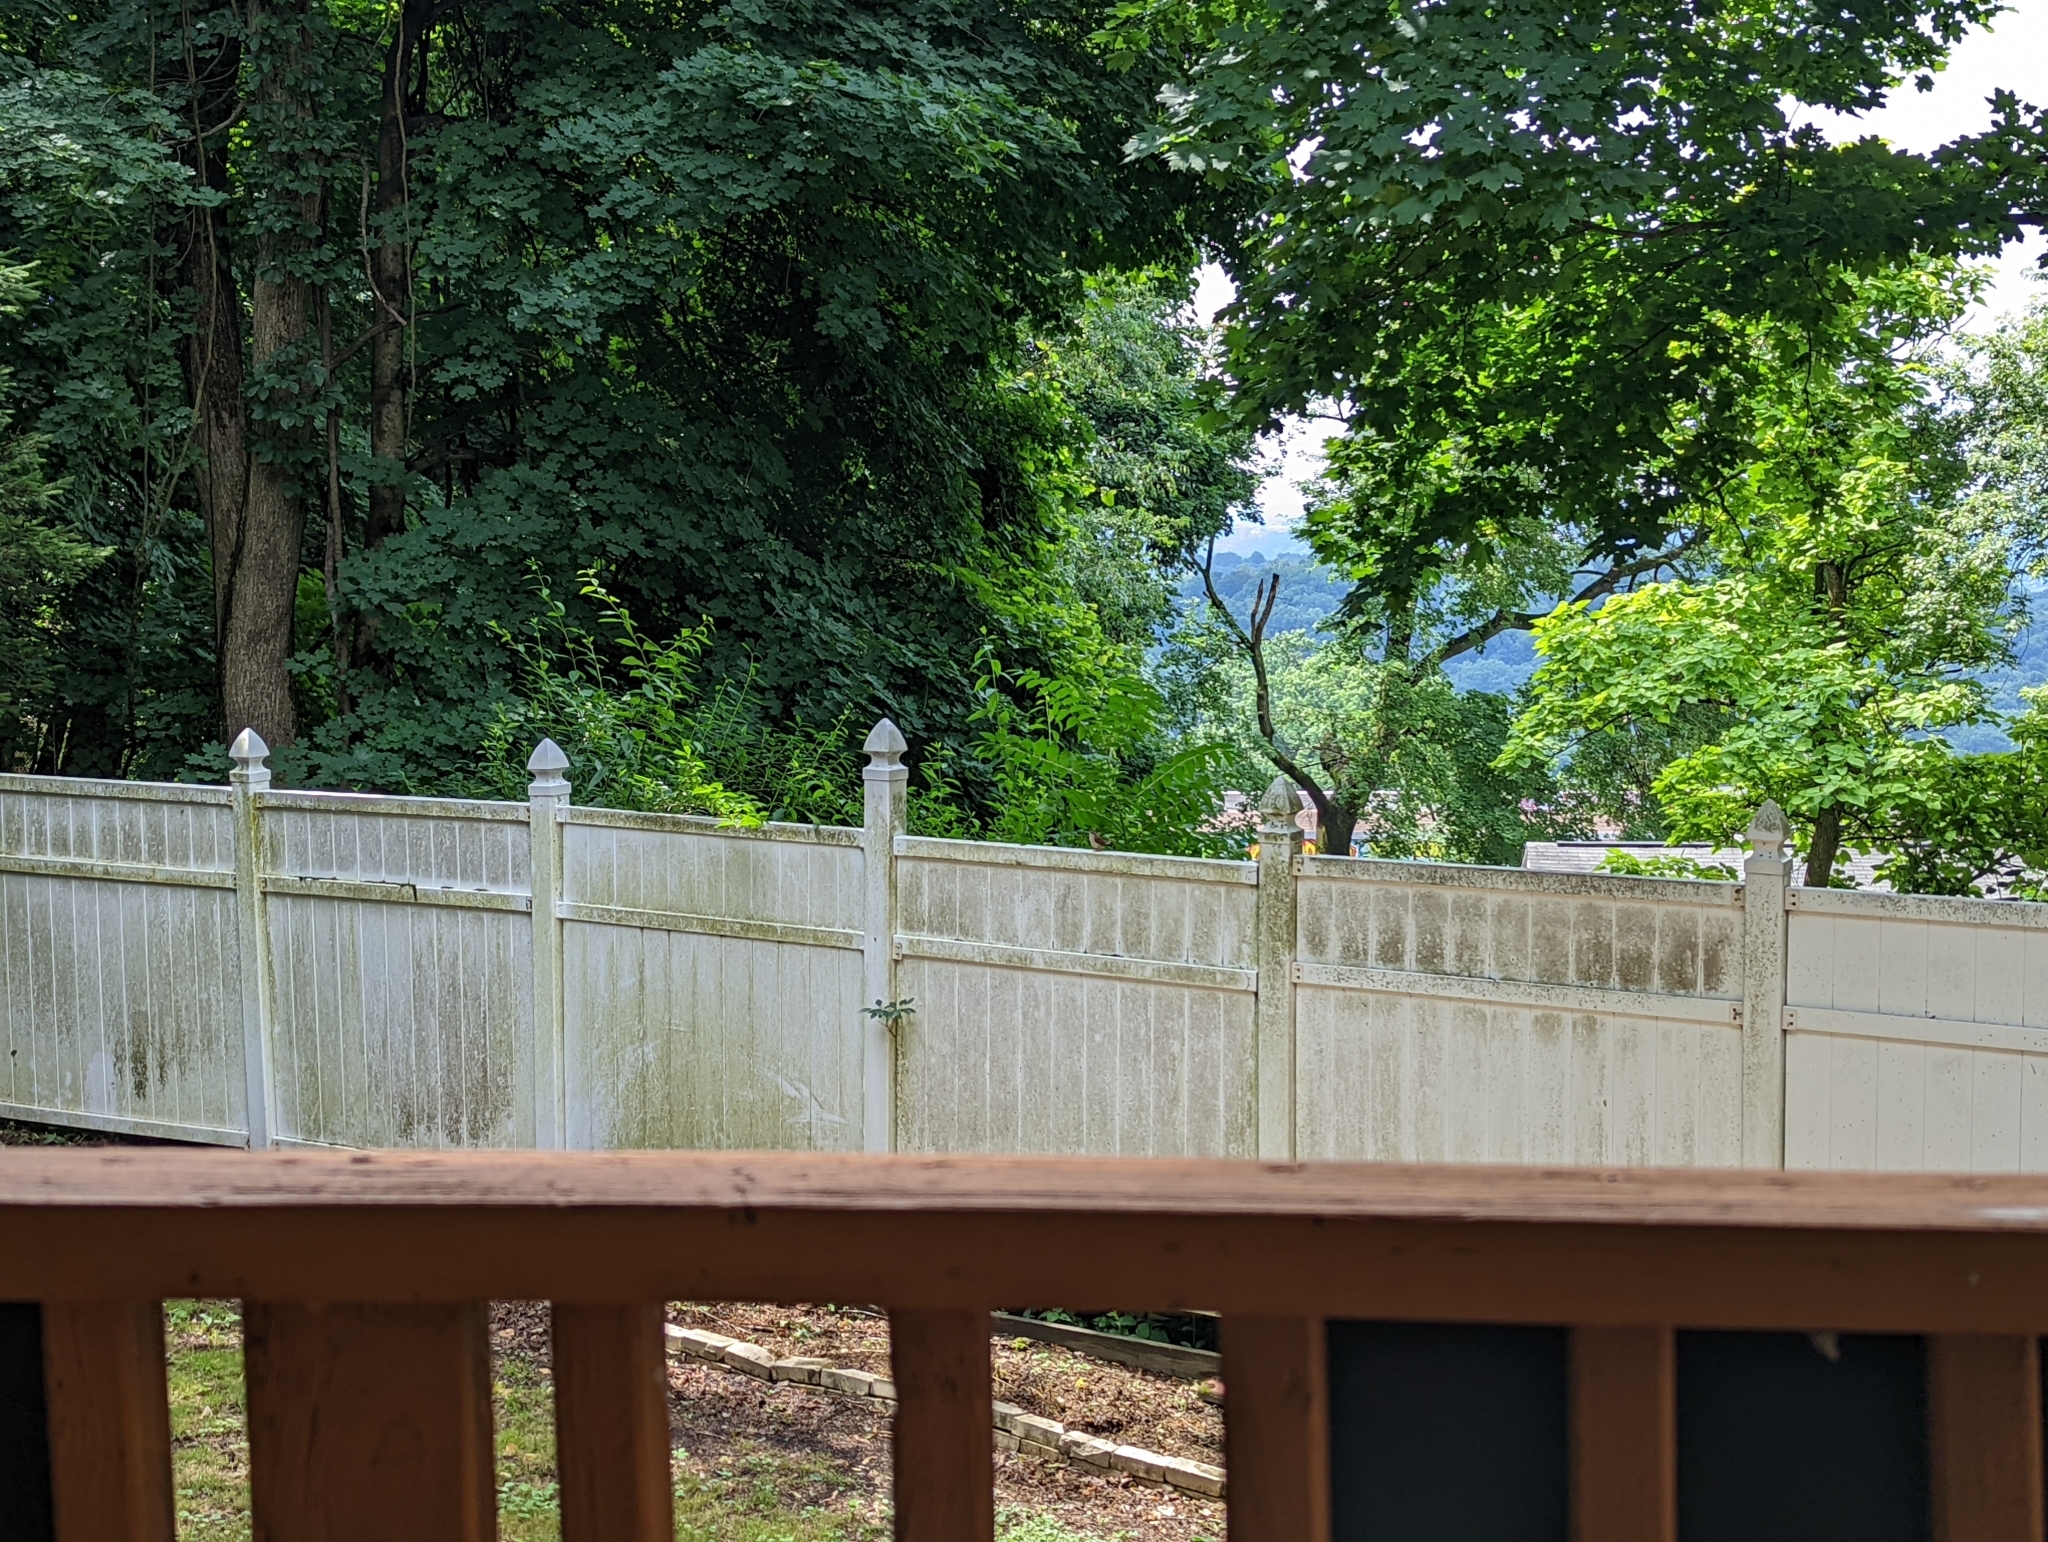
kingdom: Animalia
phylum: Chordata
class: Aves
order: Passeriformes
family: Troglodytidae
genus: Thryothorus
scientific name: Thryothorus ludovicianus
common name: Carolina wren
